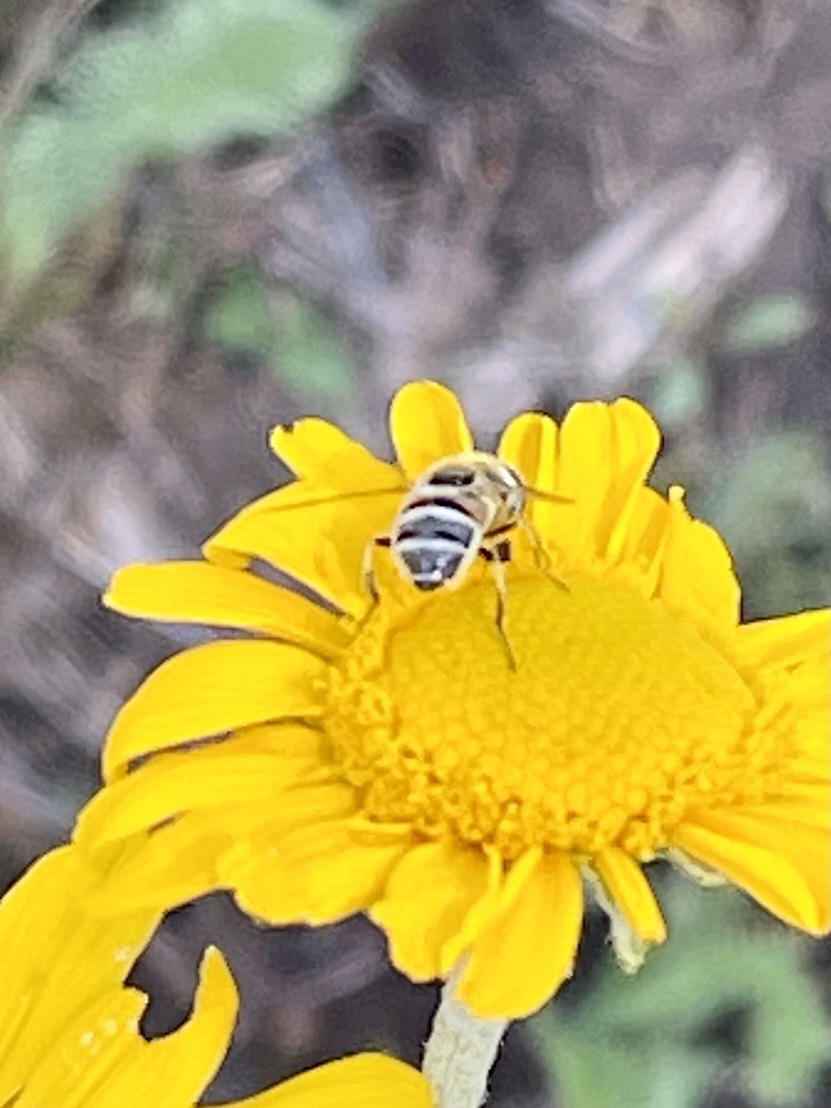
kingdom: Animalia
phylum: Arthropoda
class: Insecta
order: Diptera
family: Syrphidae
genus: Eristalis
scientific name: Eristalis stipator
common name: Yellow-shouldered drone fly
